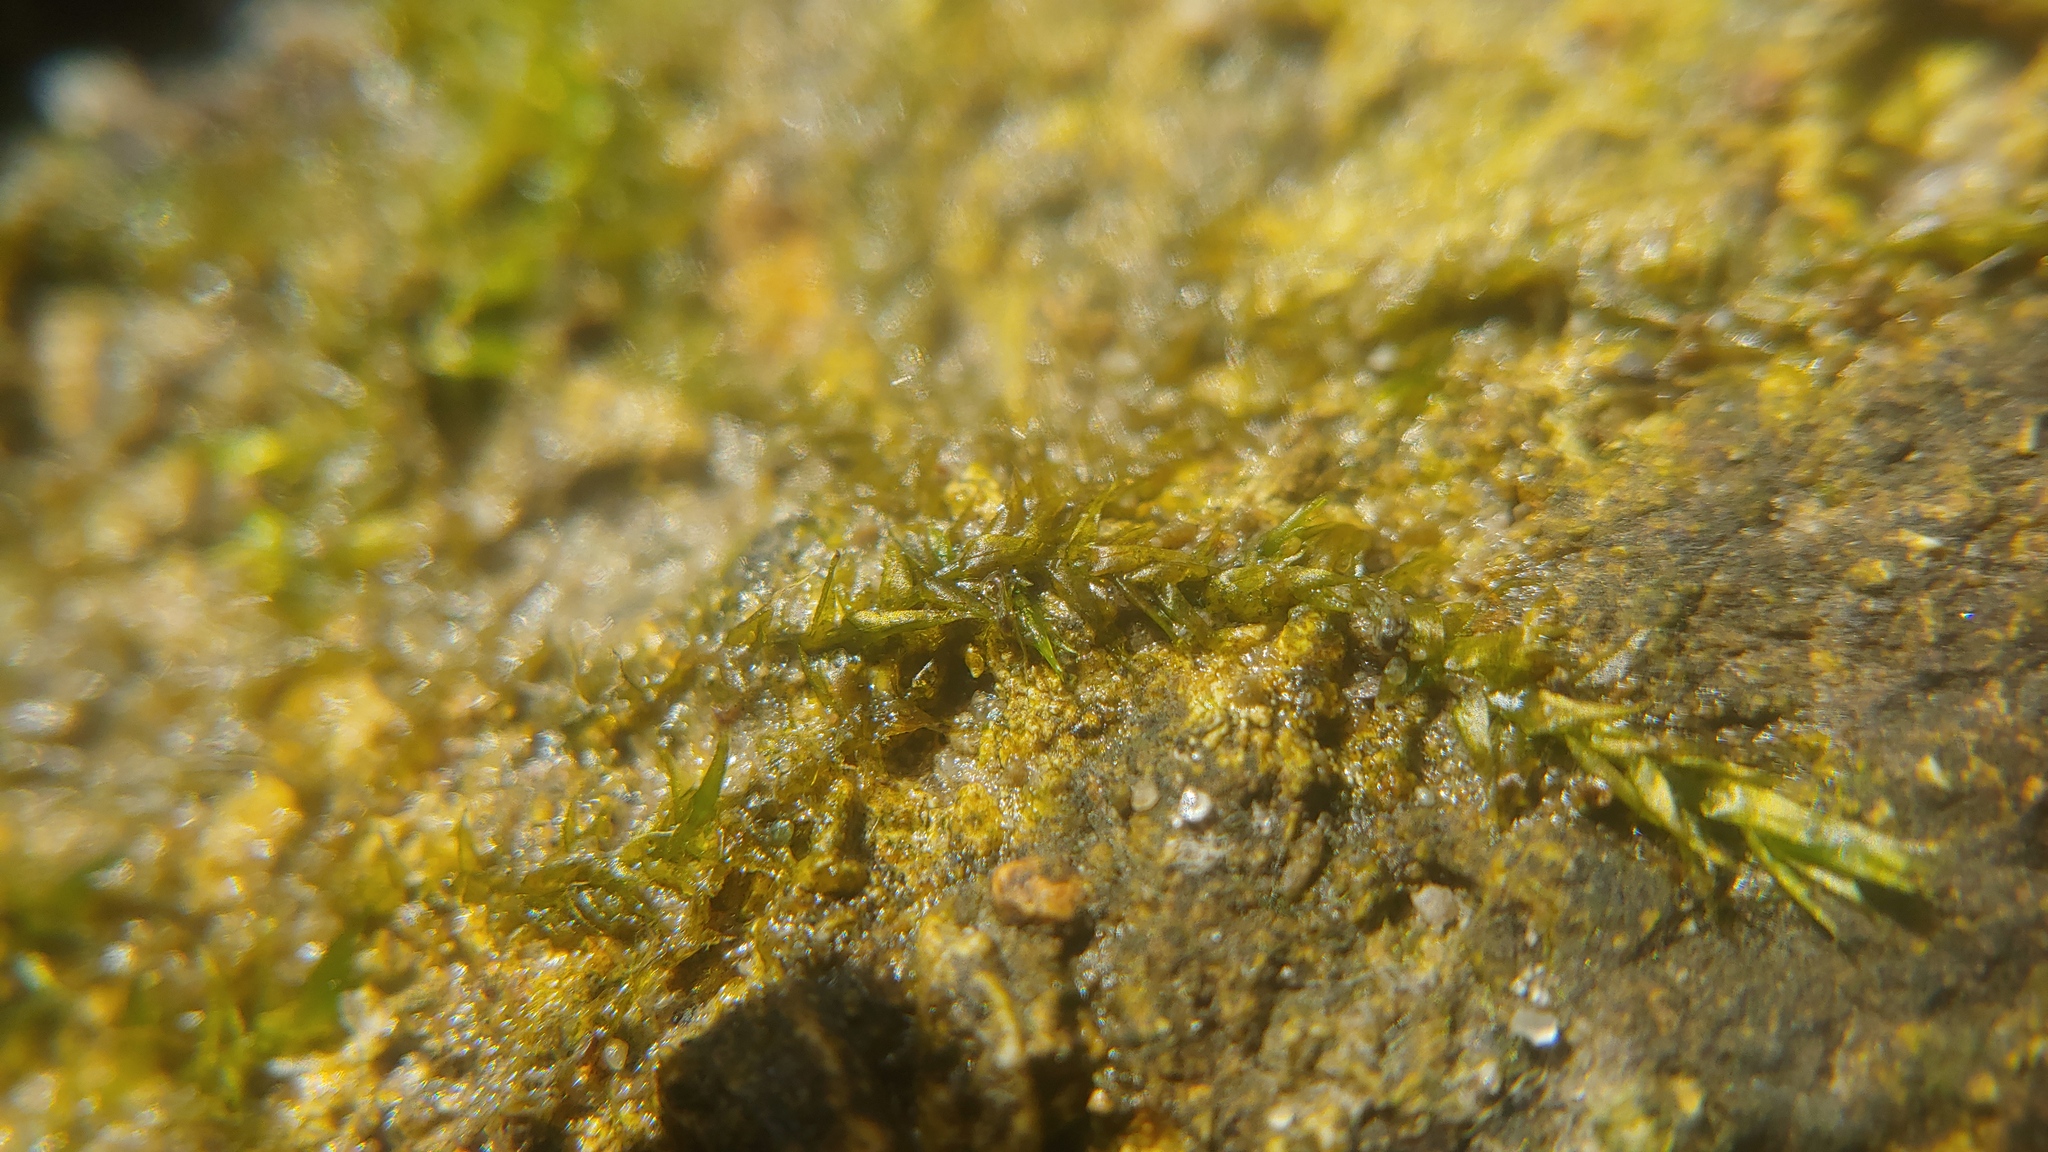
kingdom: Plantae
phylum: Bryophyta
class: Bryopsida
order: Hypnales
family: Brachytheciaceae
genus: Rhynchostegium
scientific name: Rhynchostegium riparioides
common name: Platyhypnidium moss
